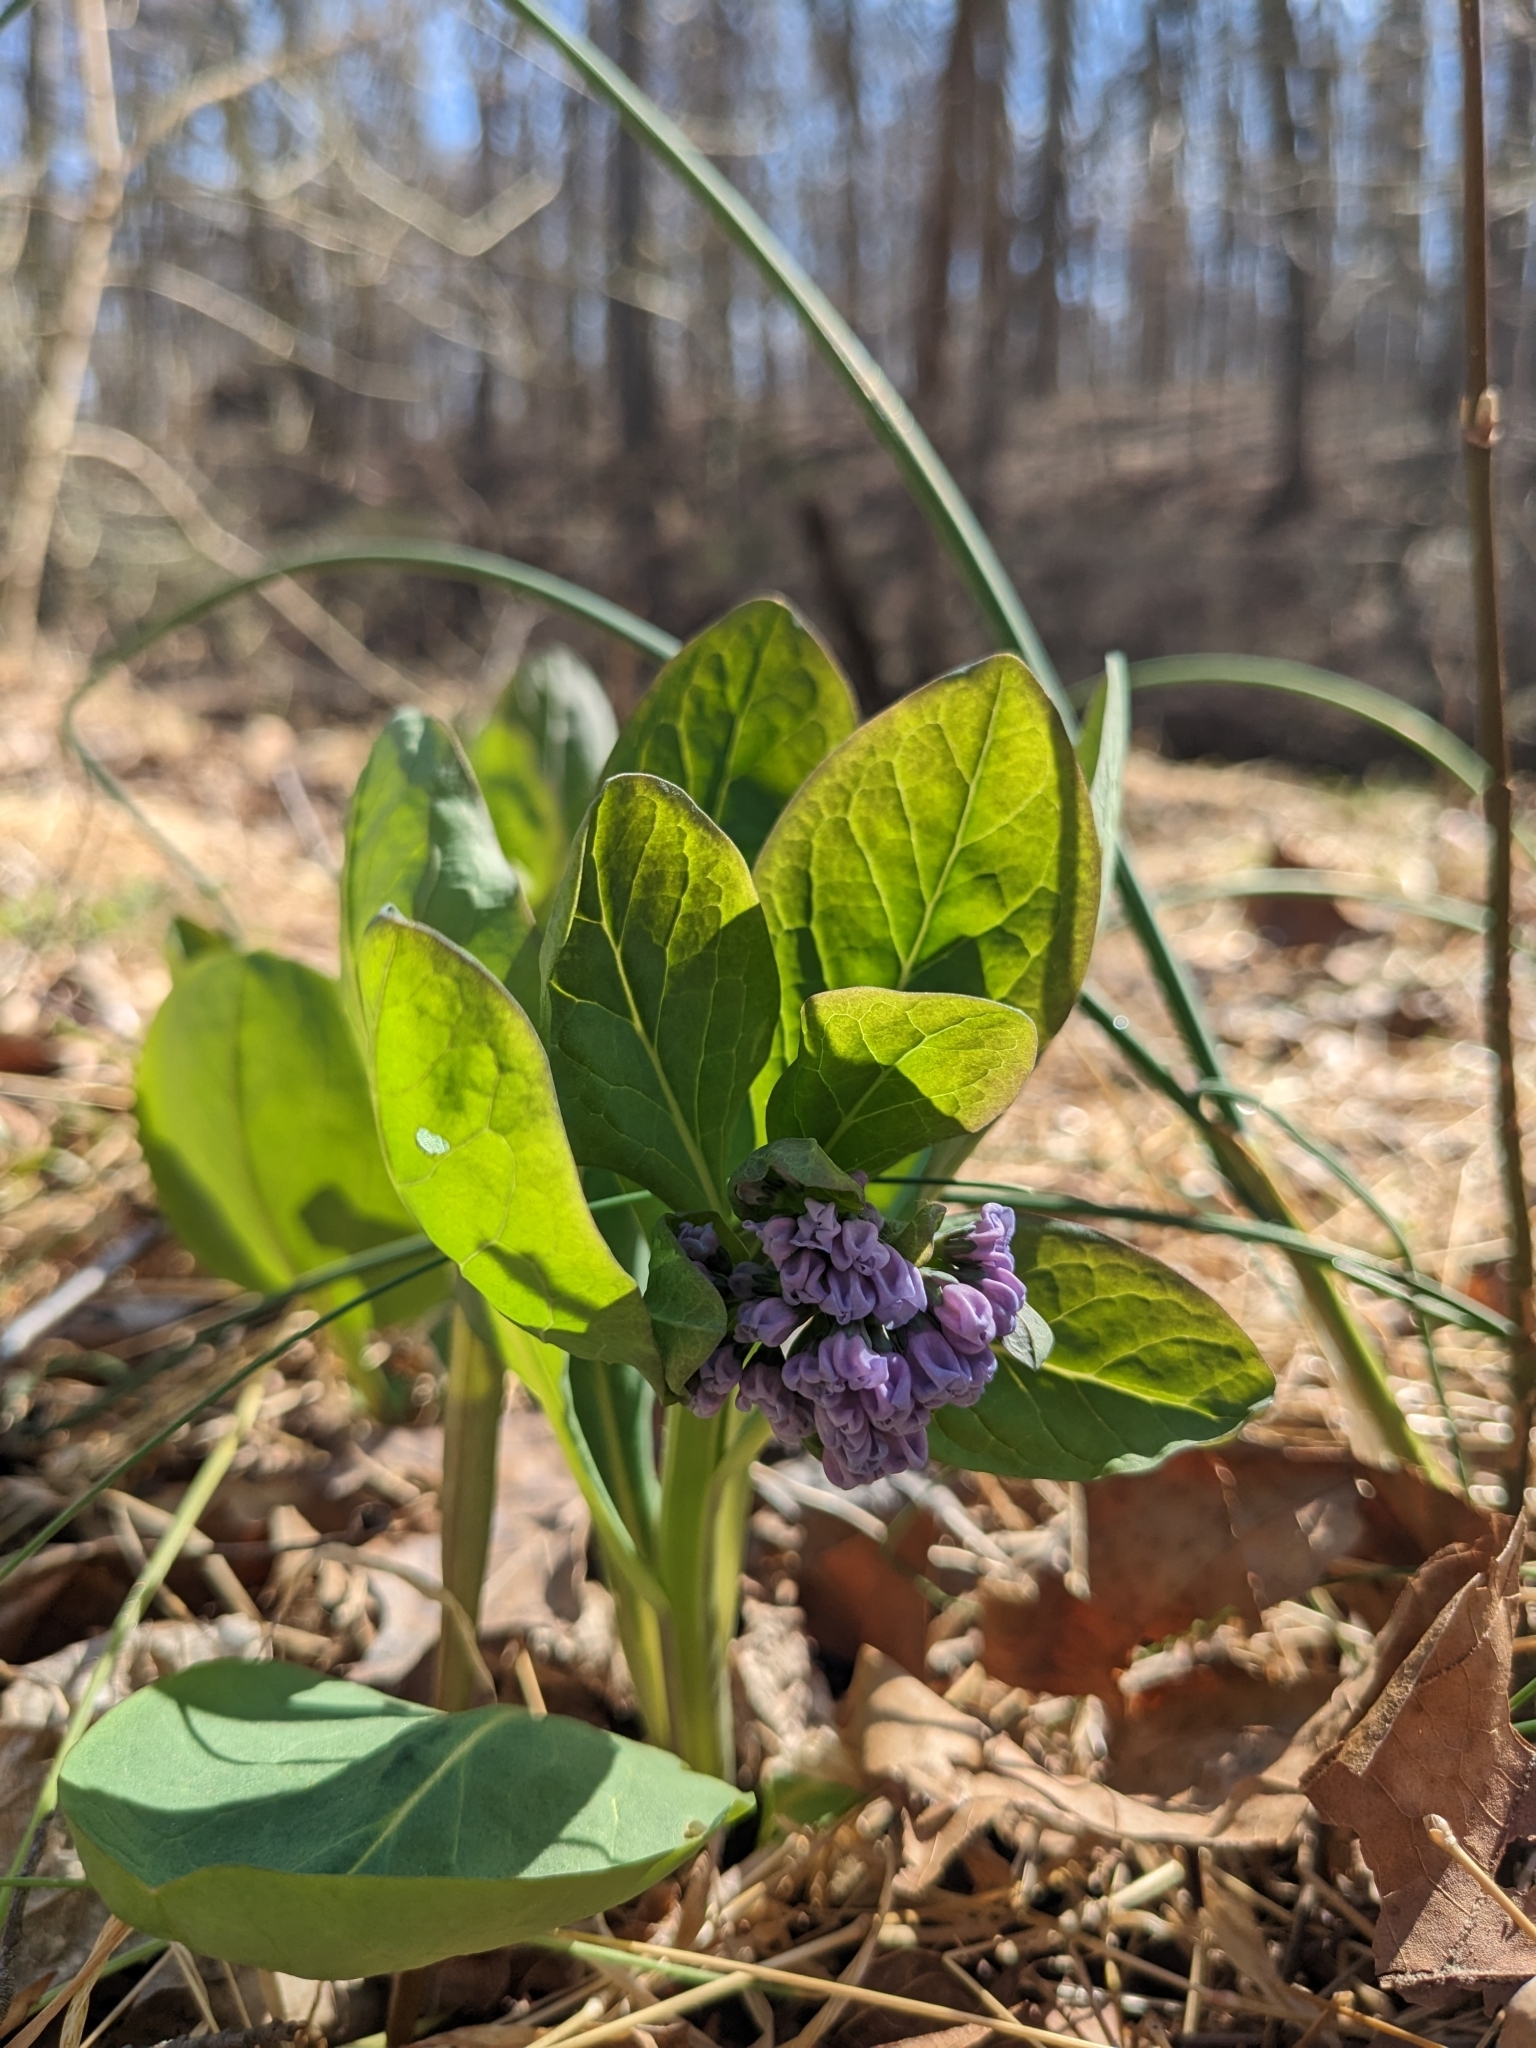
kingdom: Plantae
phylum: Tracheophyta
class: Magnoliopsida
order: Boraginales
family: Boraginaceae
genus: Mertensia
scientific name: Mertensia virginica
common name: Virginia bluebells
